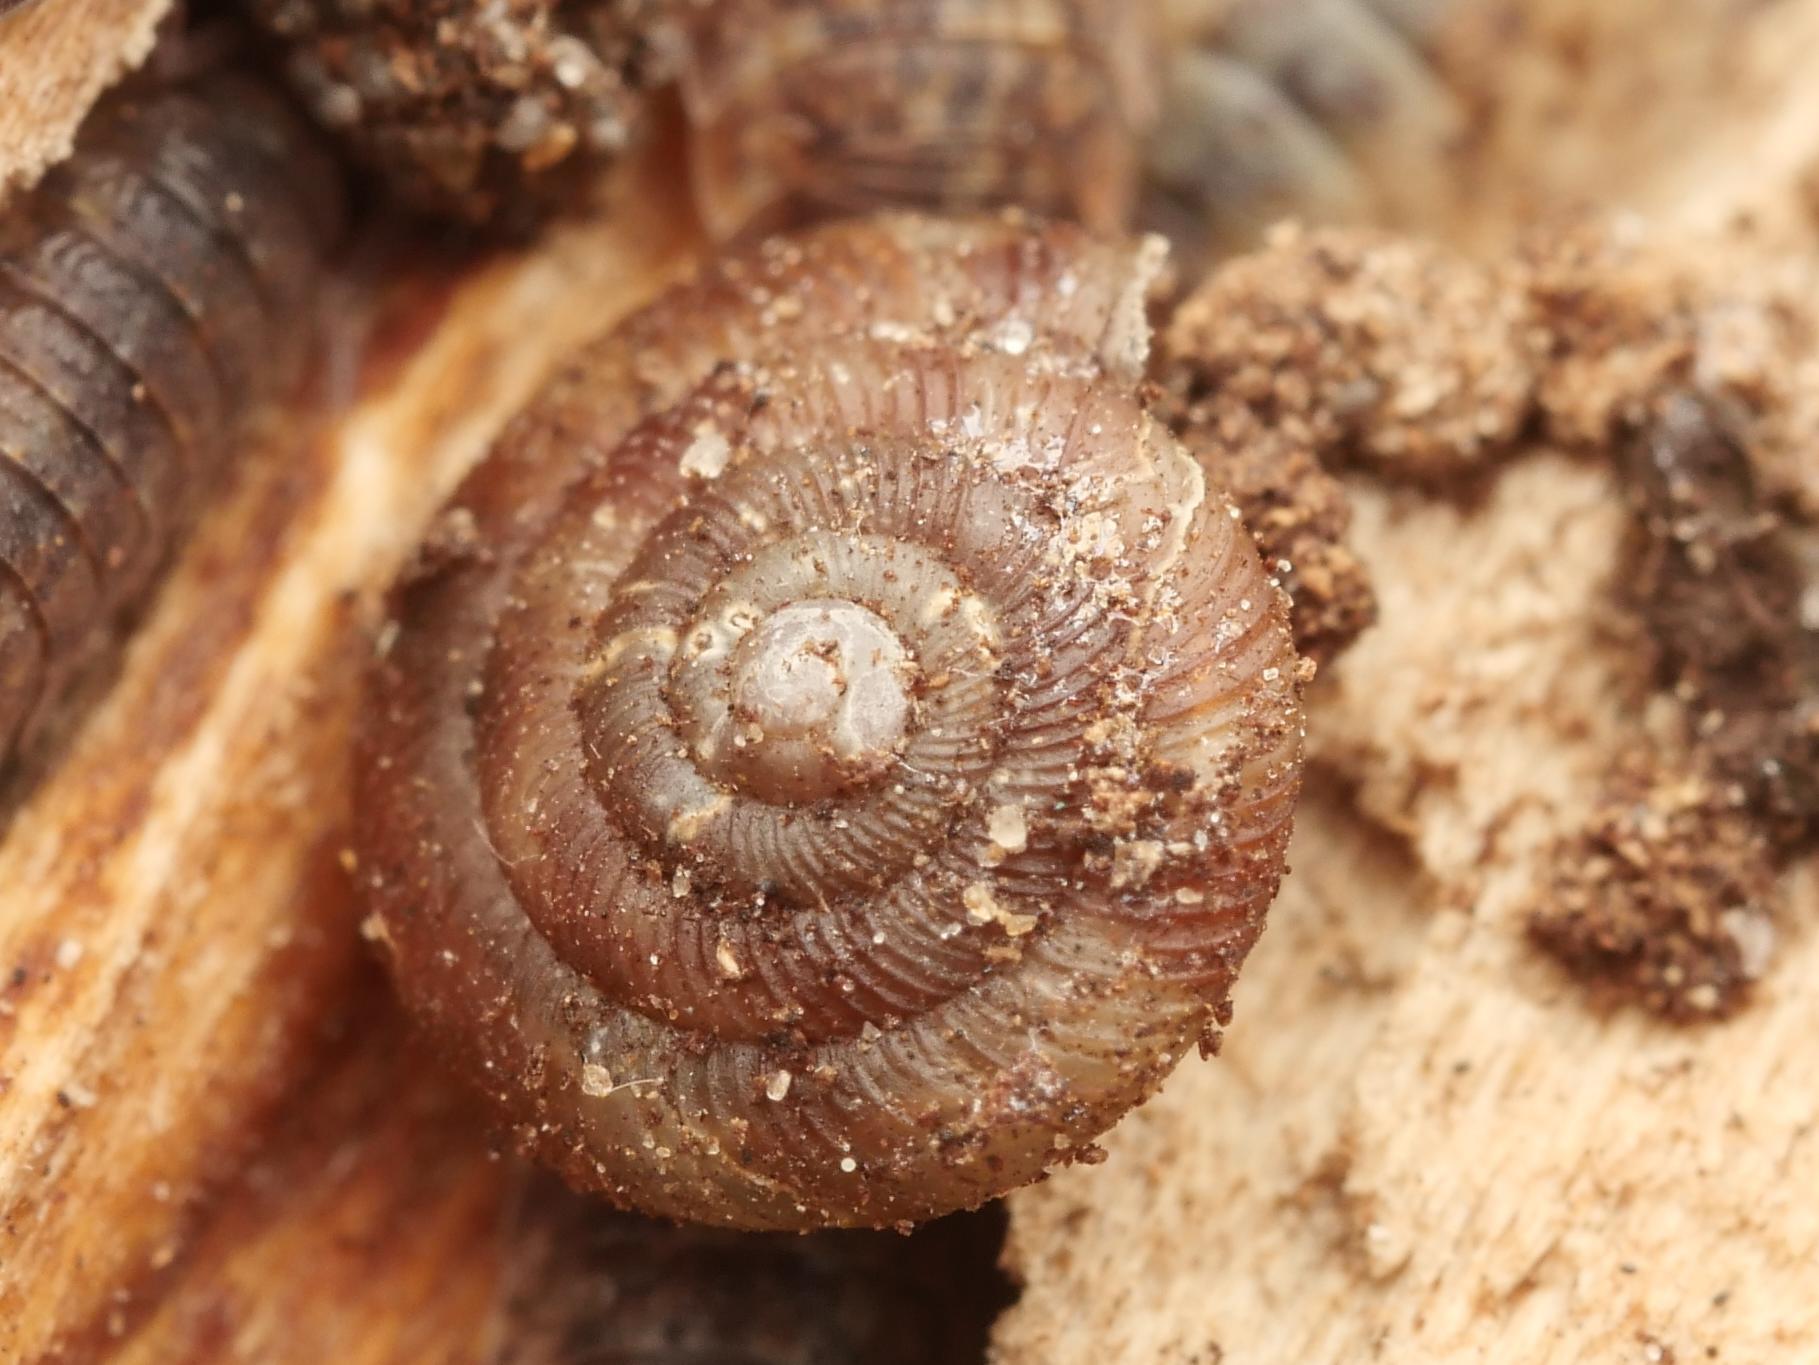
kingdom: Animalia
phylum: Mollusca
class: Gastropoda
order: Stylommatophora
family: Discidae
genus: Discus
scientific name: Discus rotundatus
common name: Rounded snail
